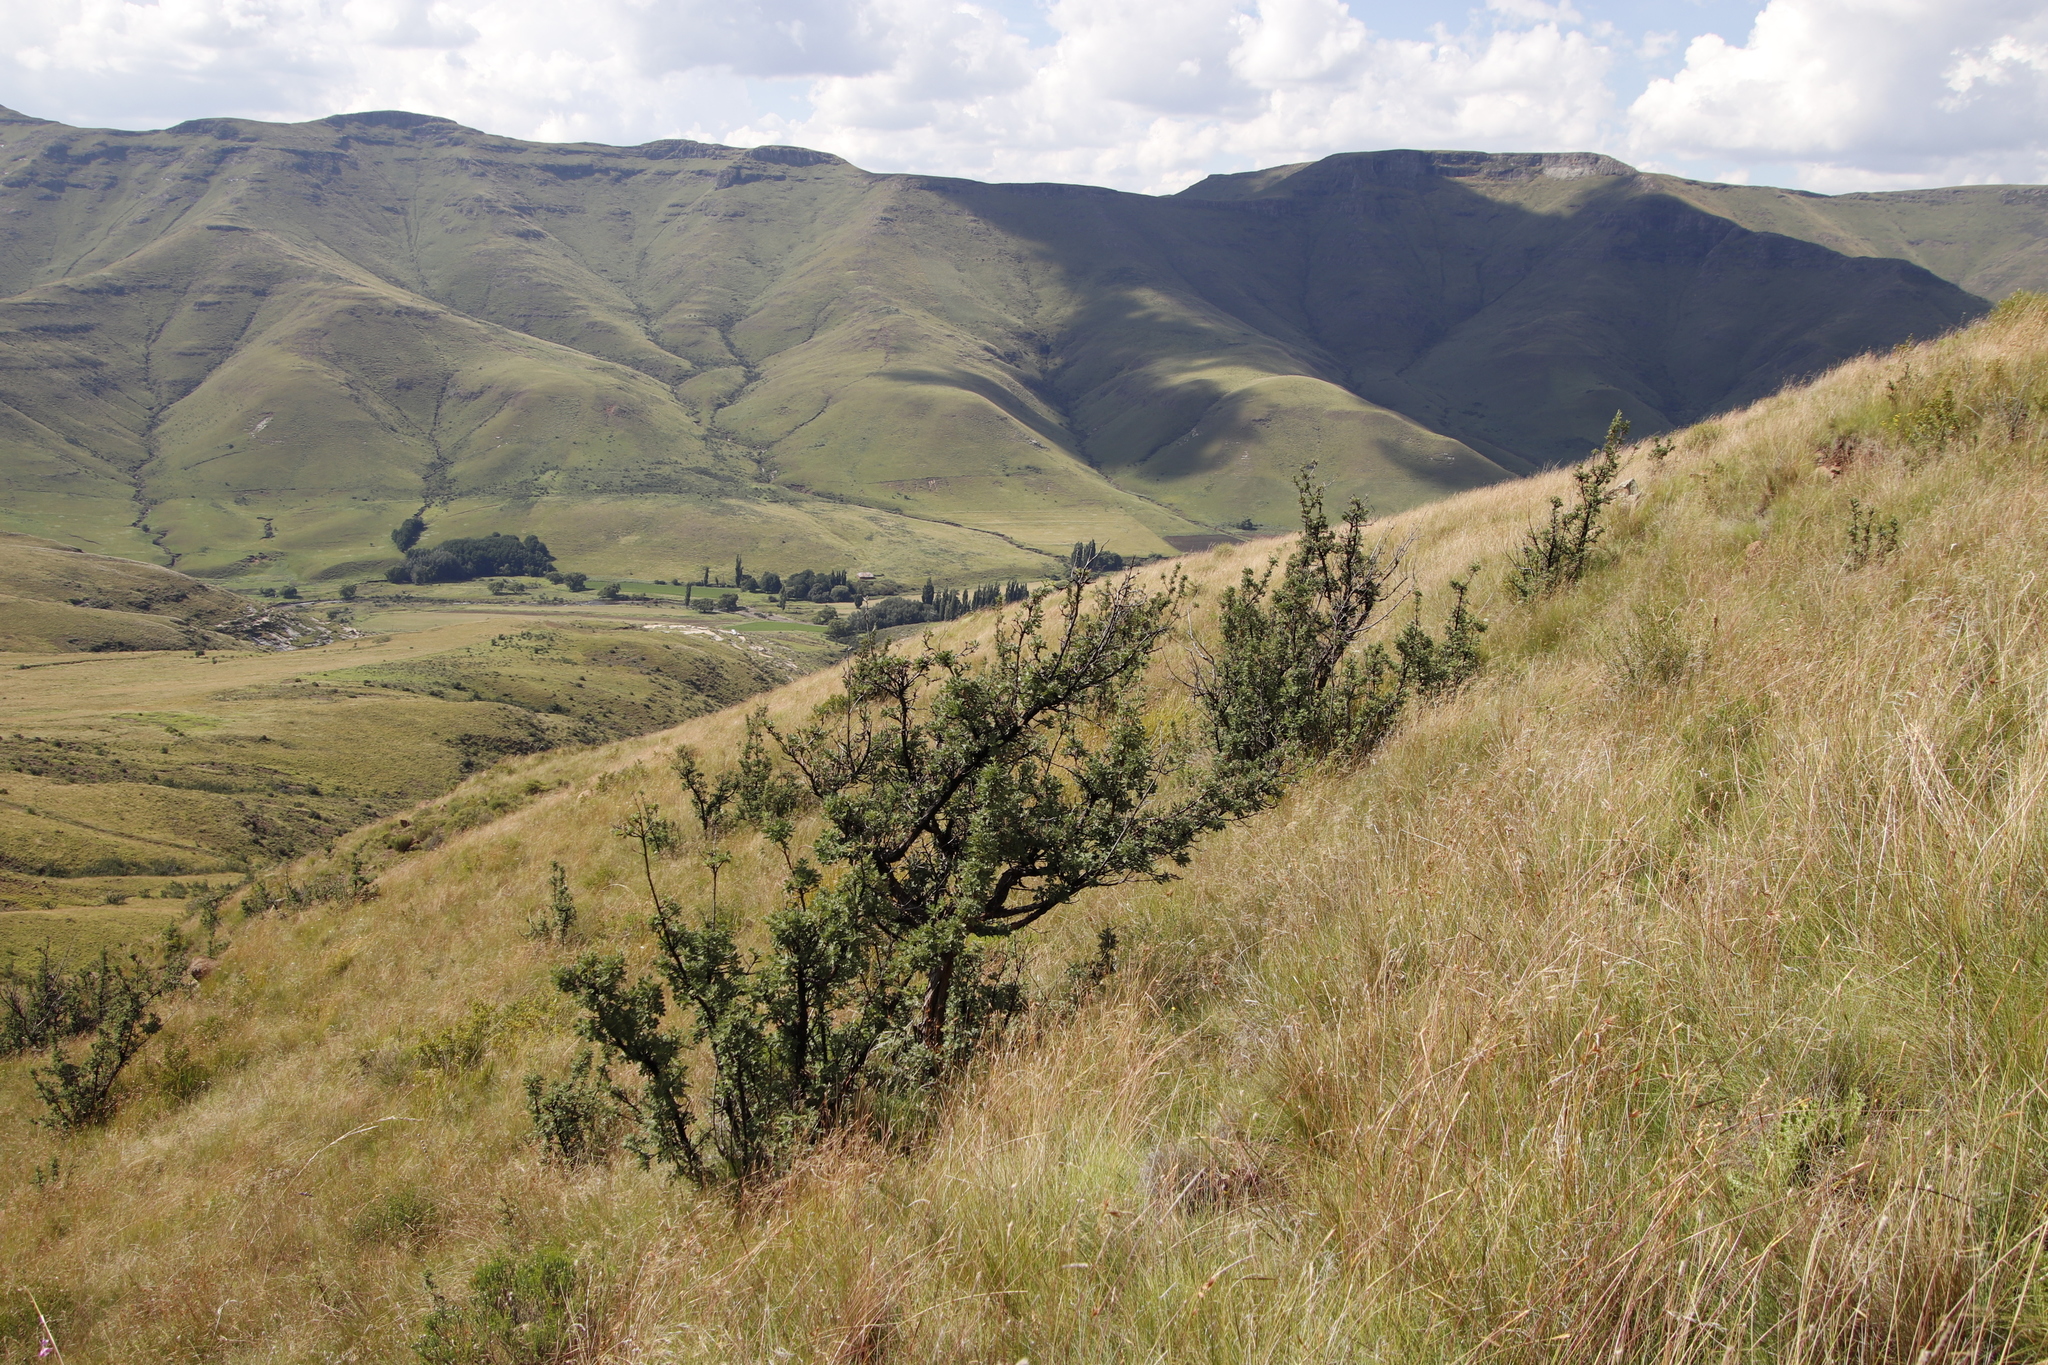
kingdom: Plantae
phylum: Tracheophyta
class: Magnoliopsida
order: Rosales
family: Rosaceae
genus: Leucosidea
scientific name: Leucosidea sericea
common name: Oldwood
